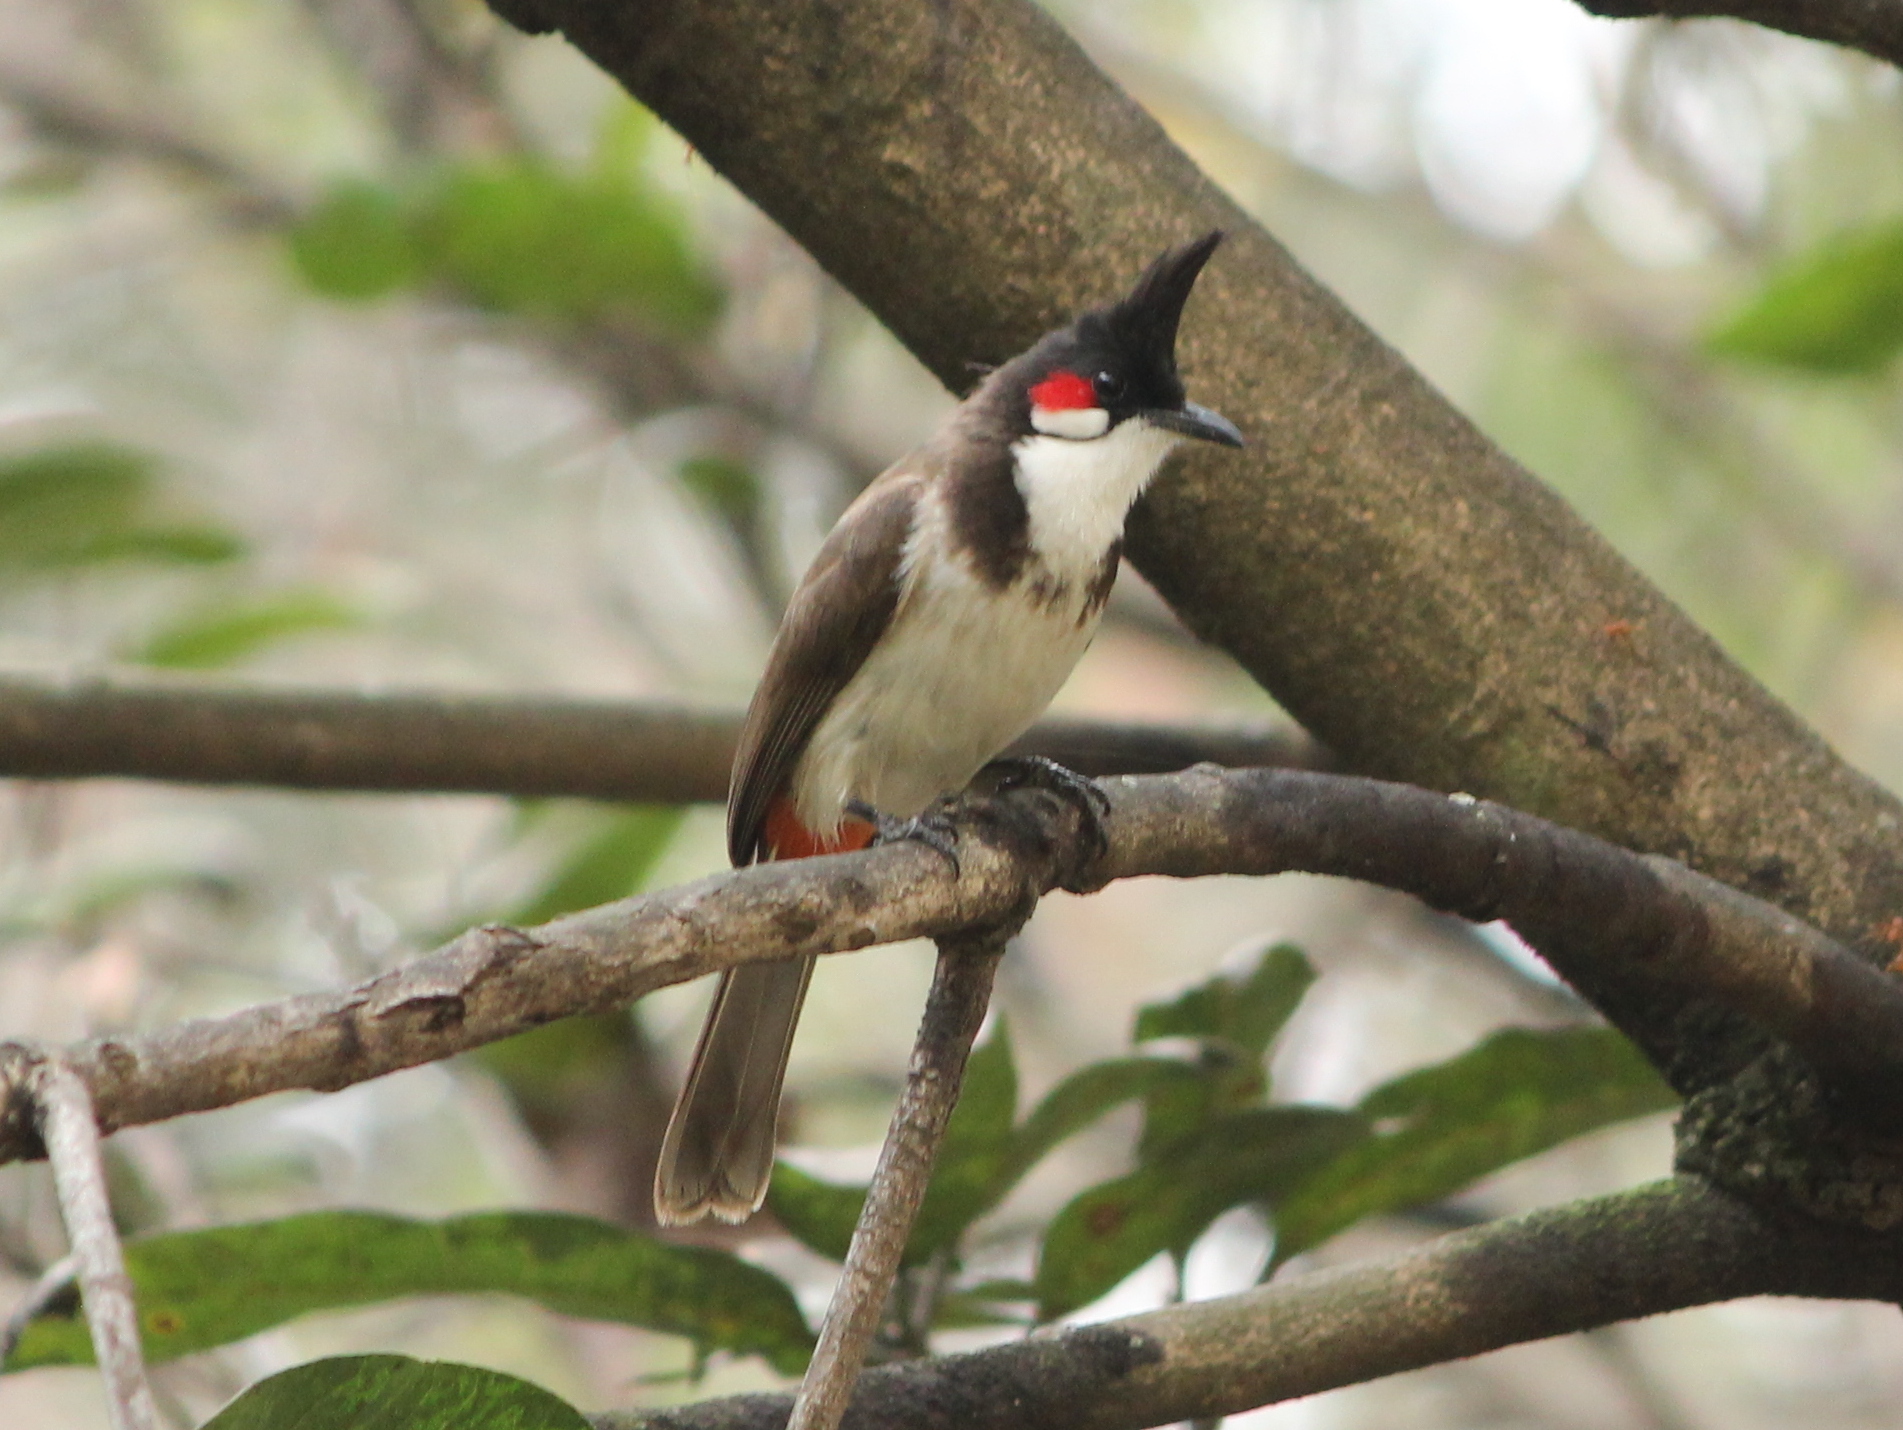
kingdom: Animalia
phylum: Chordata
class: Aves
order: Passeriformes
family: Pycnonotidae
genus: Pycnonotus
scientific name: Pycnonotus jocosus
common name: Red-whiskered bulbul
